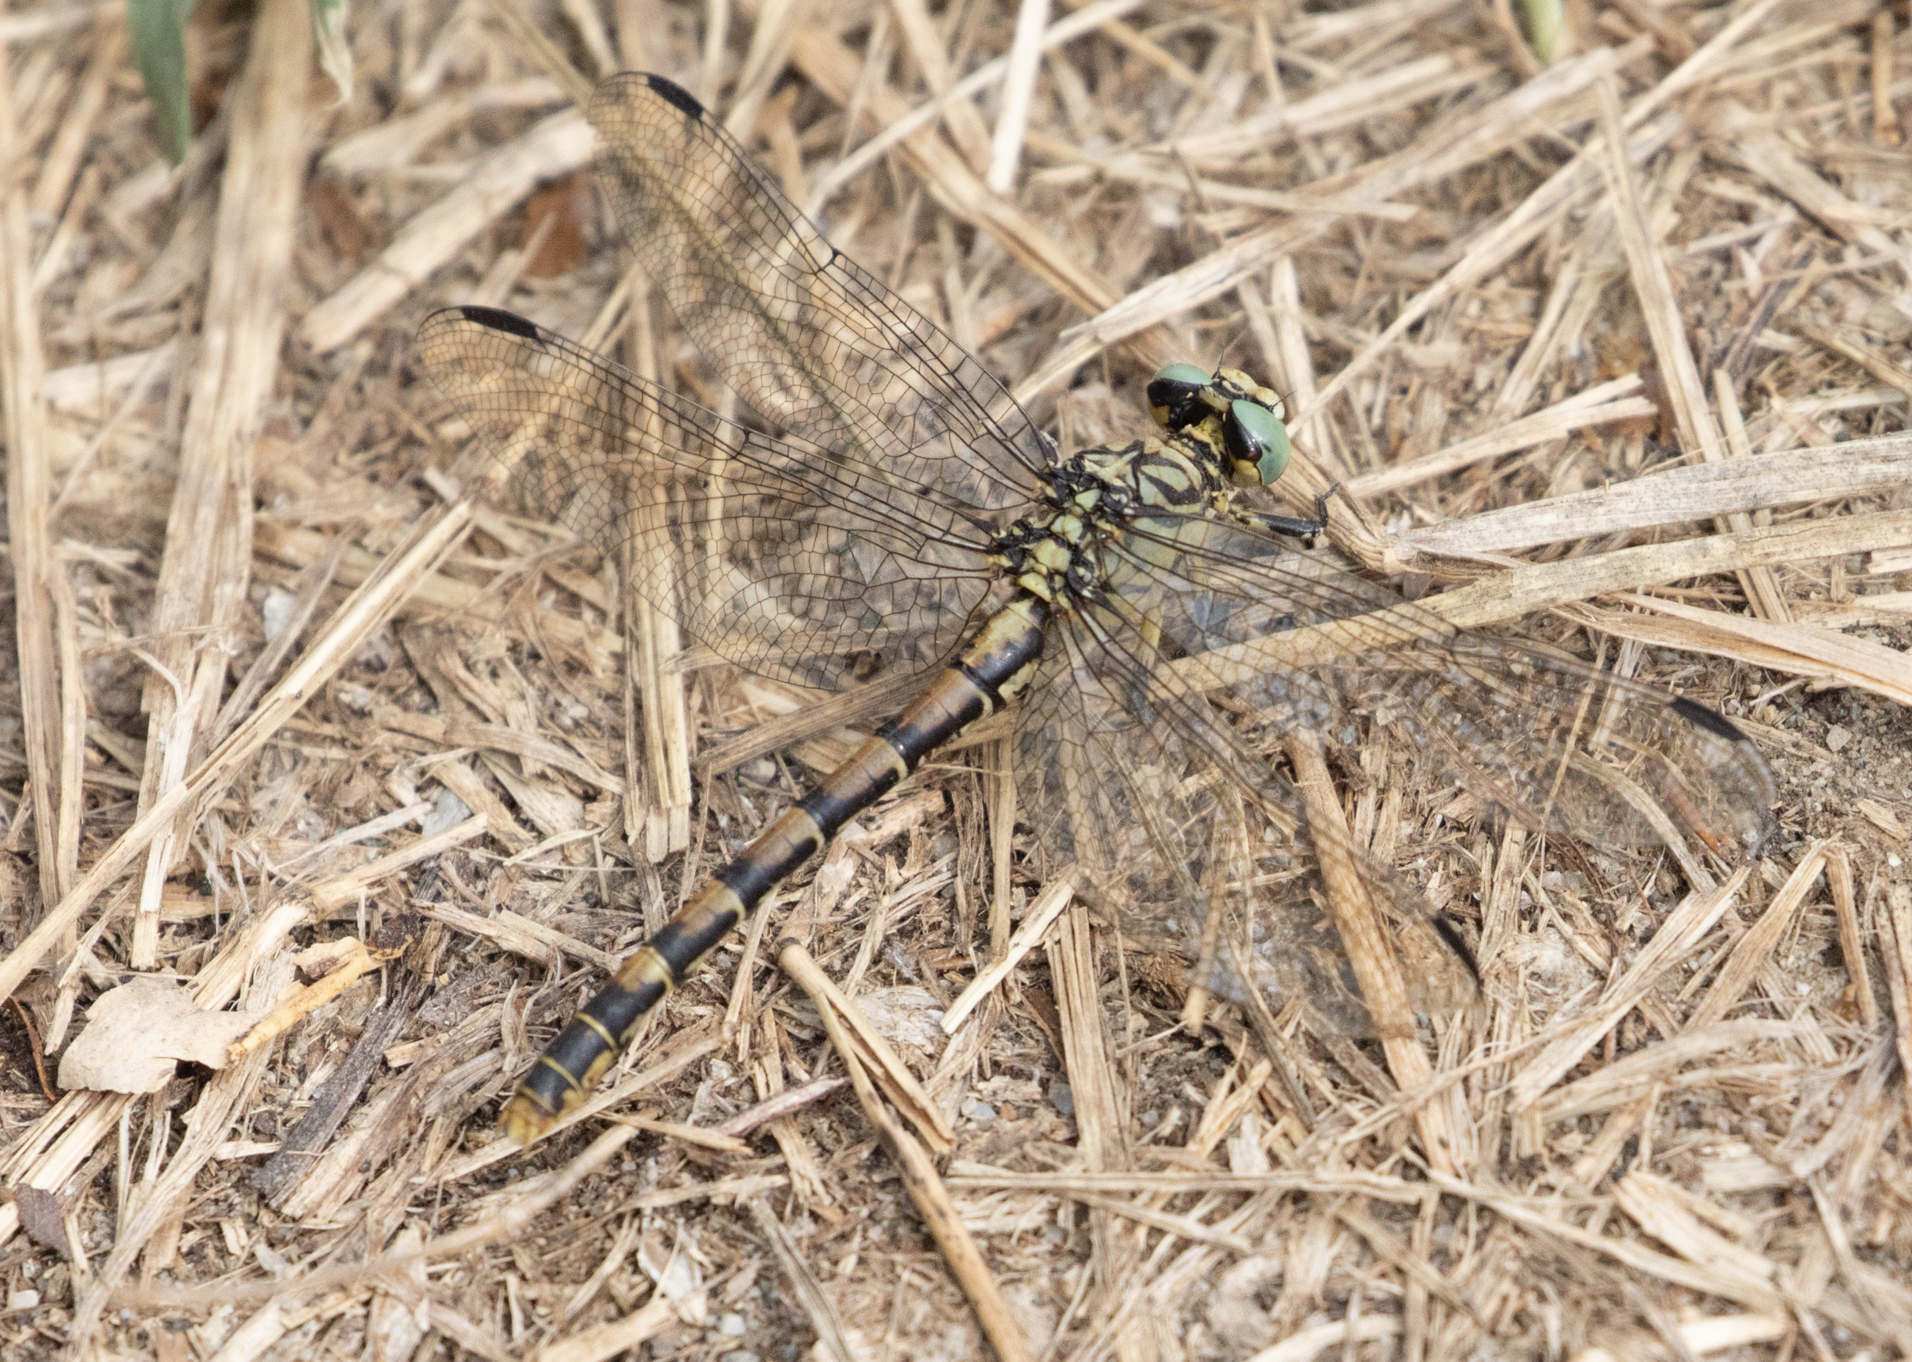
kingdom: Animalia
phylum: Arthropoda
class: Insecta
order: Odonata
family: Gomphidae
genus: Onychogomphus
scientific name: Onychogomphus forcipatus
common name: Small pincertail
